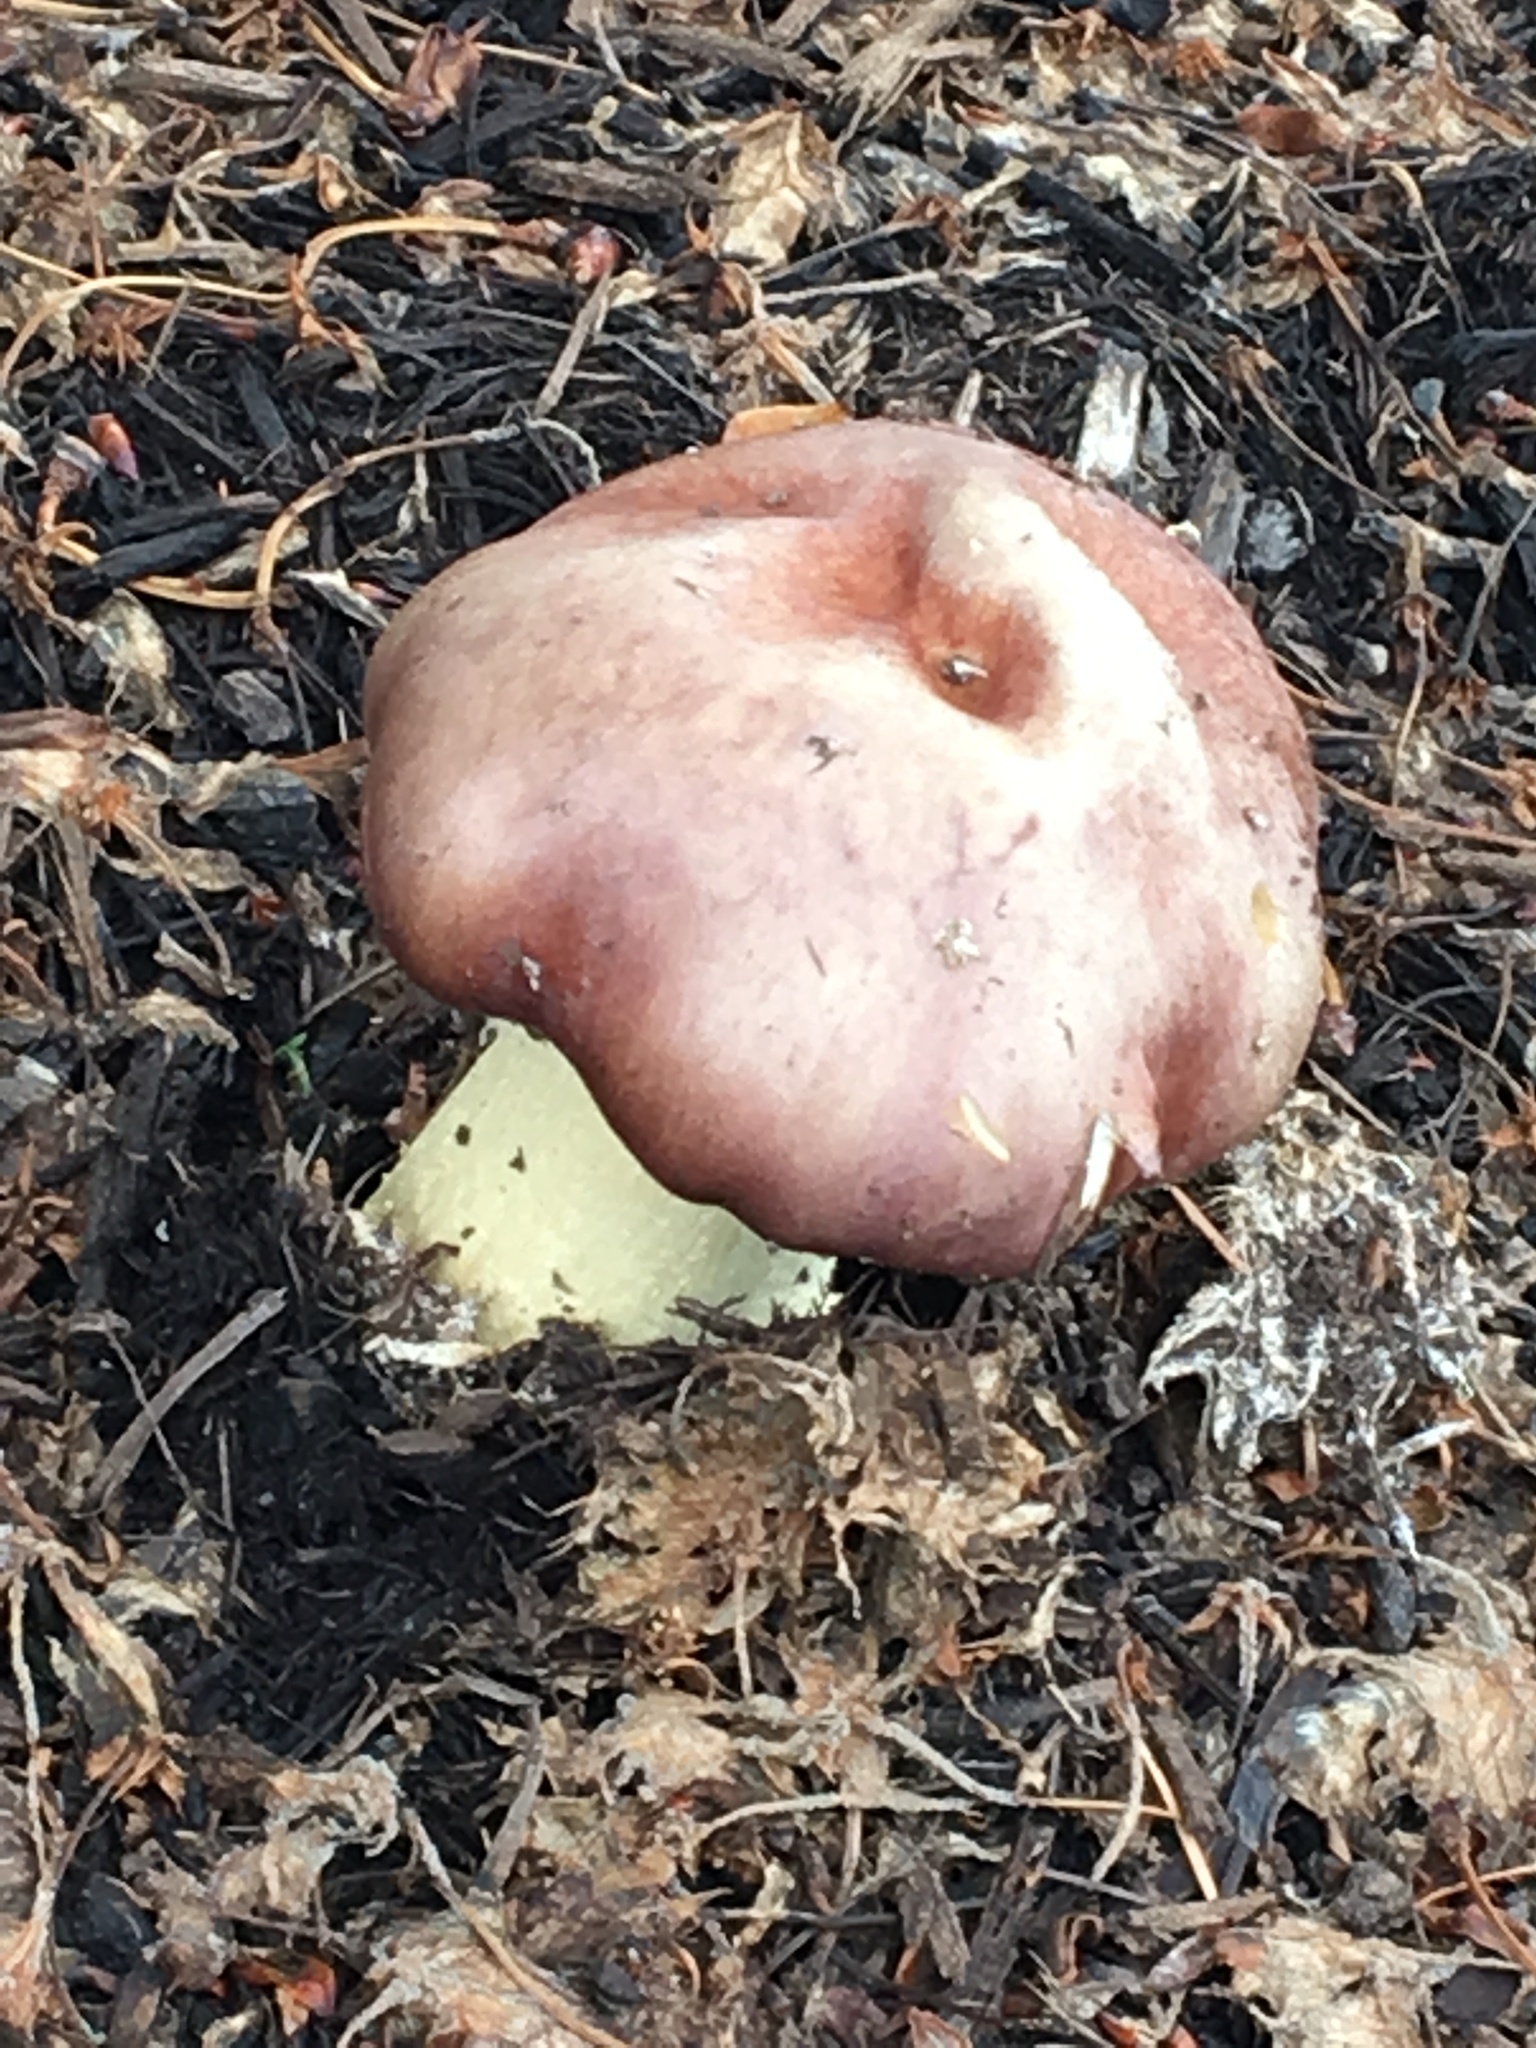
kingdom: Fungi
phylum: Basidiomycota
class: Agaricomycetes
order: Agaricales
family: Strophariaceae
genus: Stropharia
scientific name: Stropharia rugosoannulata
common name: Wine roundhead
